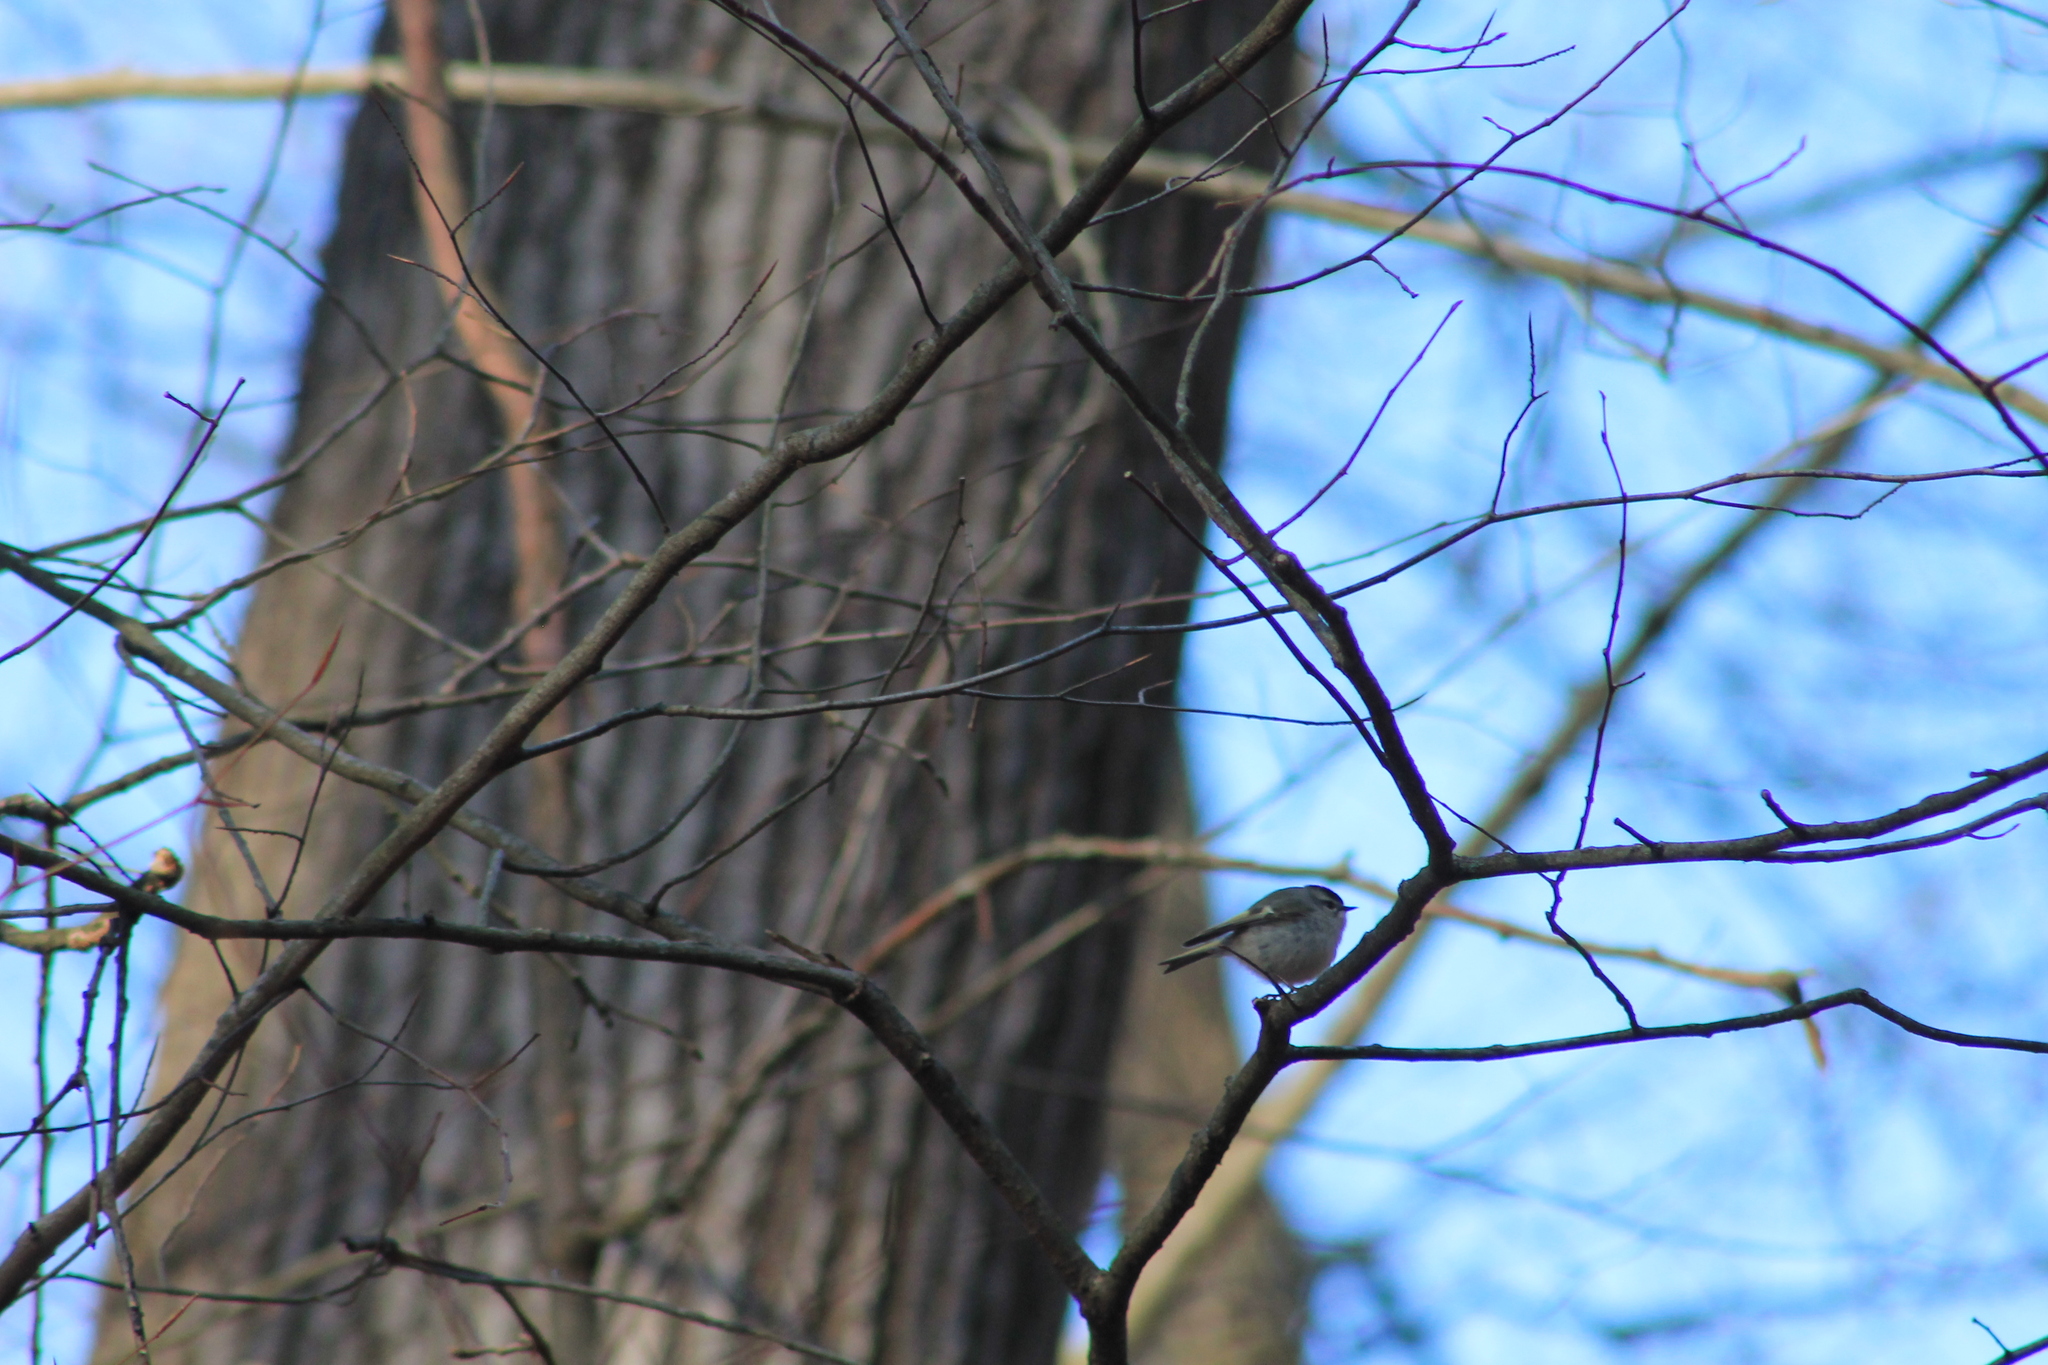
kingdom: Animalia
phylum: Chordata
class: Aves
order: Passeriformes
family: Regulidae
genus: Regulus
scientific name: Regulus satrapa
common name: Golden-crowned kinglet
